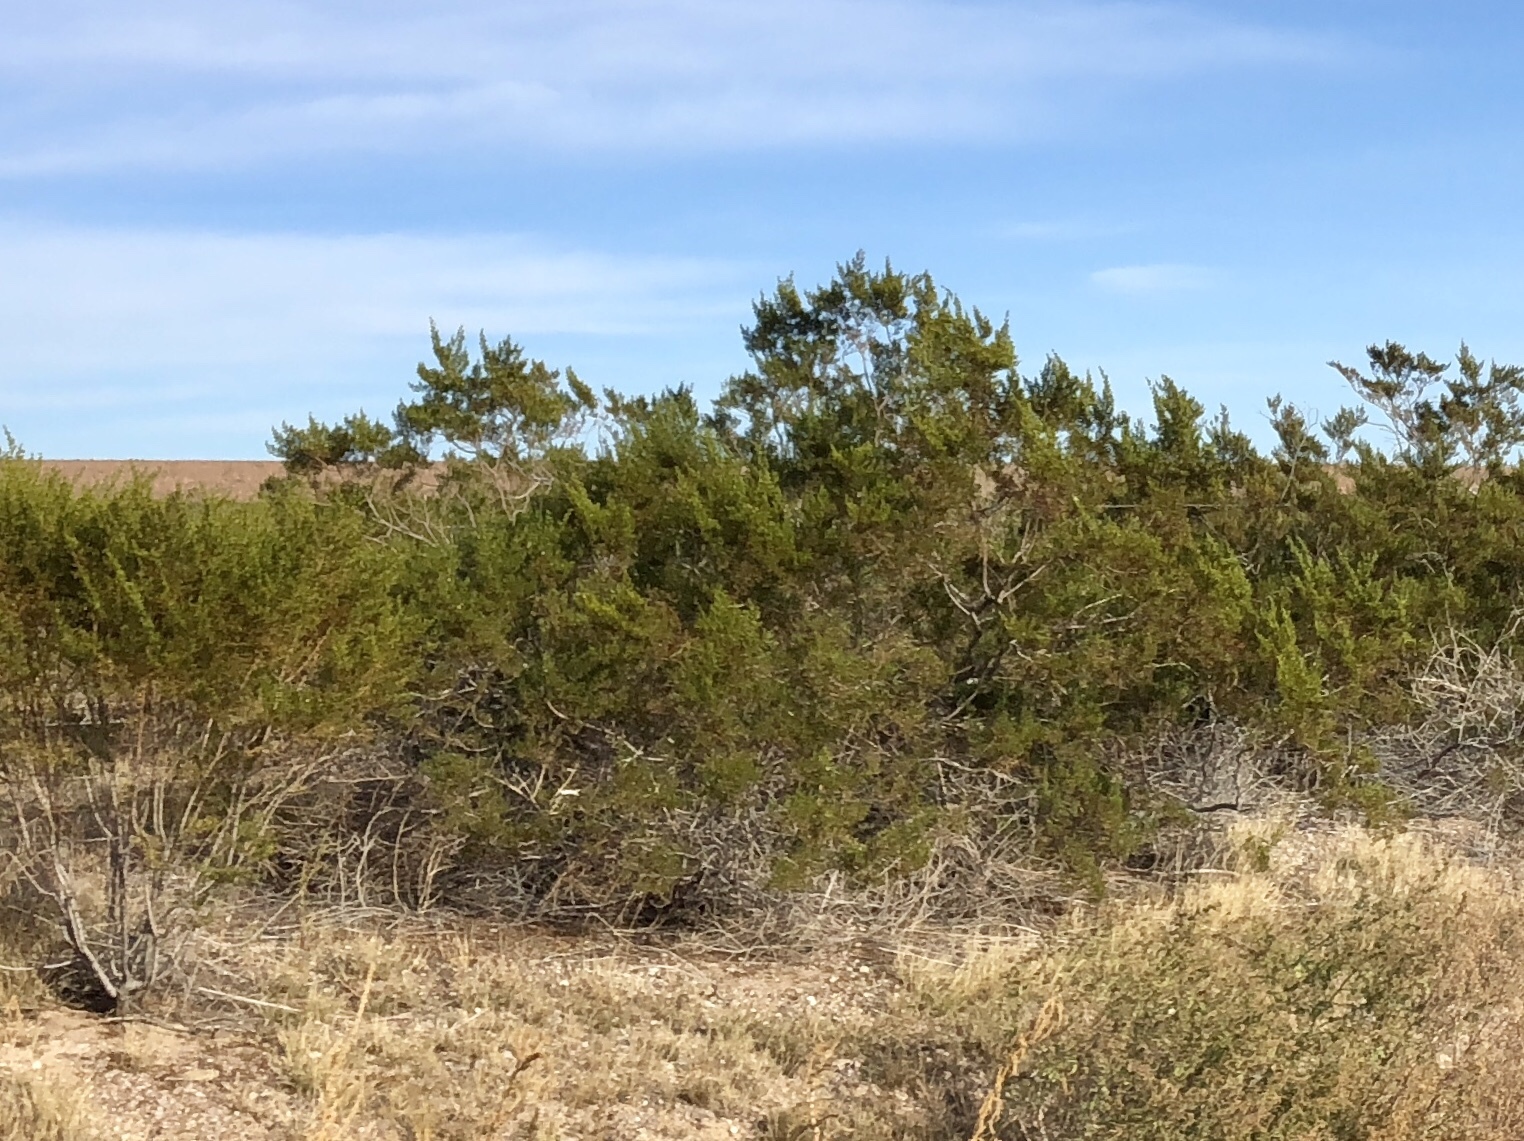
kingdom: Plantae
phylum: Tracheophyta
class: Magnoliopsida
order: Zygophyllales
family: Zygophyllaceae
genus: Larrea
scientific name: Larrea tridentata
